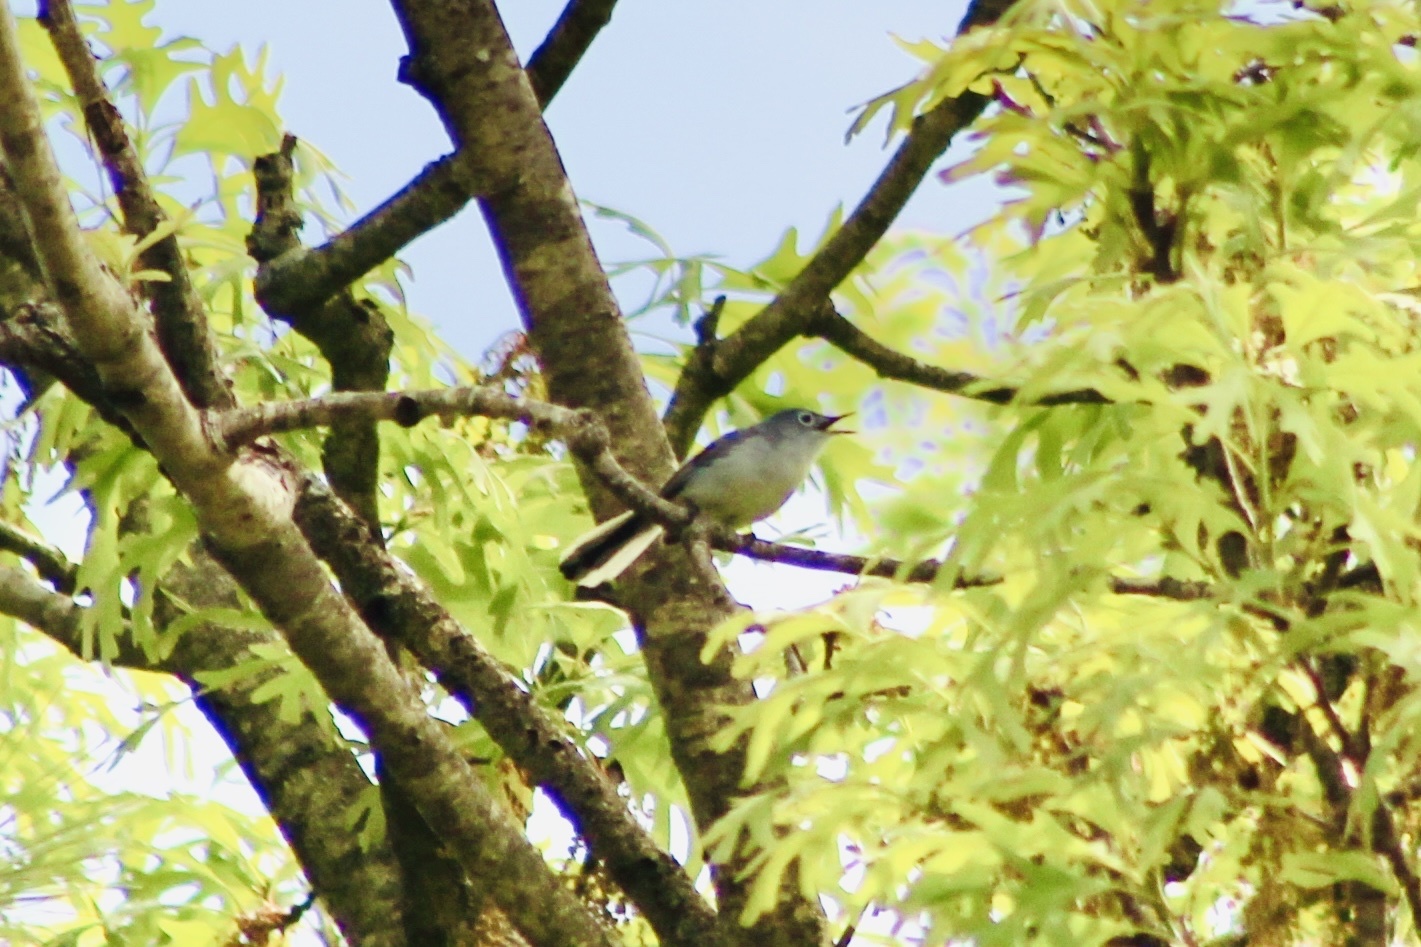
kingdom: Animalia
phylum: Chordata
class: Aves
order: Passeriformes
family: Polioptilidae
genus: Polioptila
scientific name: Polioptila caerulea
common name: Blue-gray gnatcatcher
